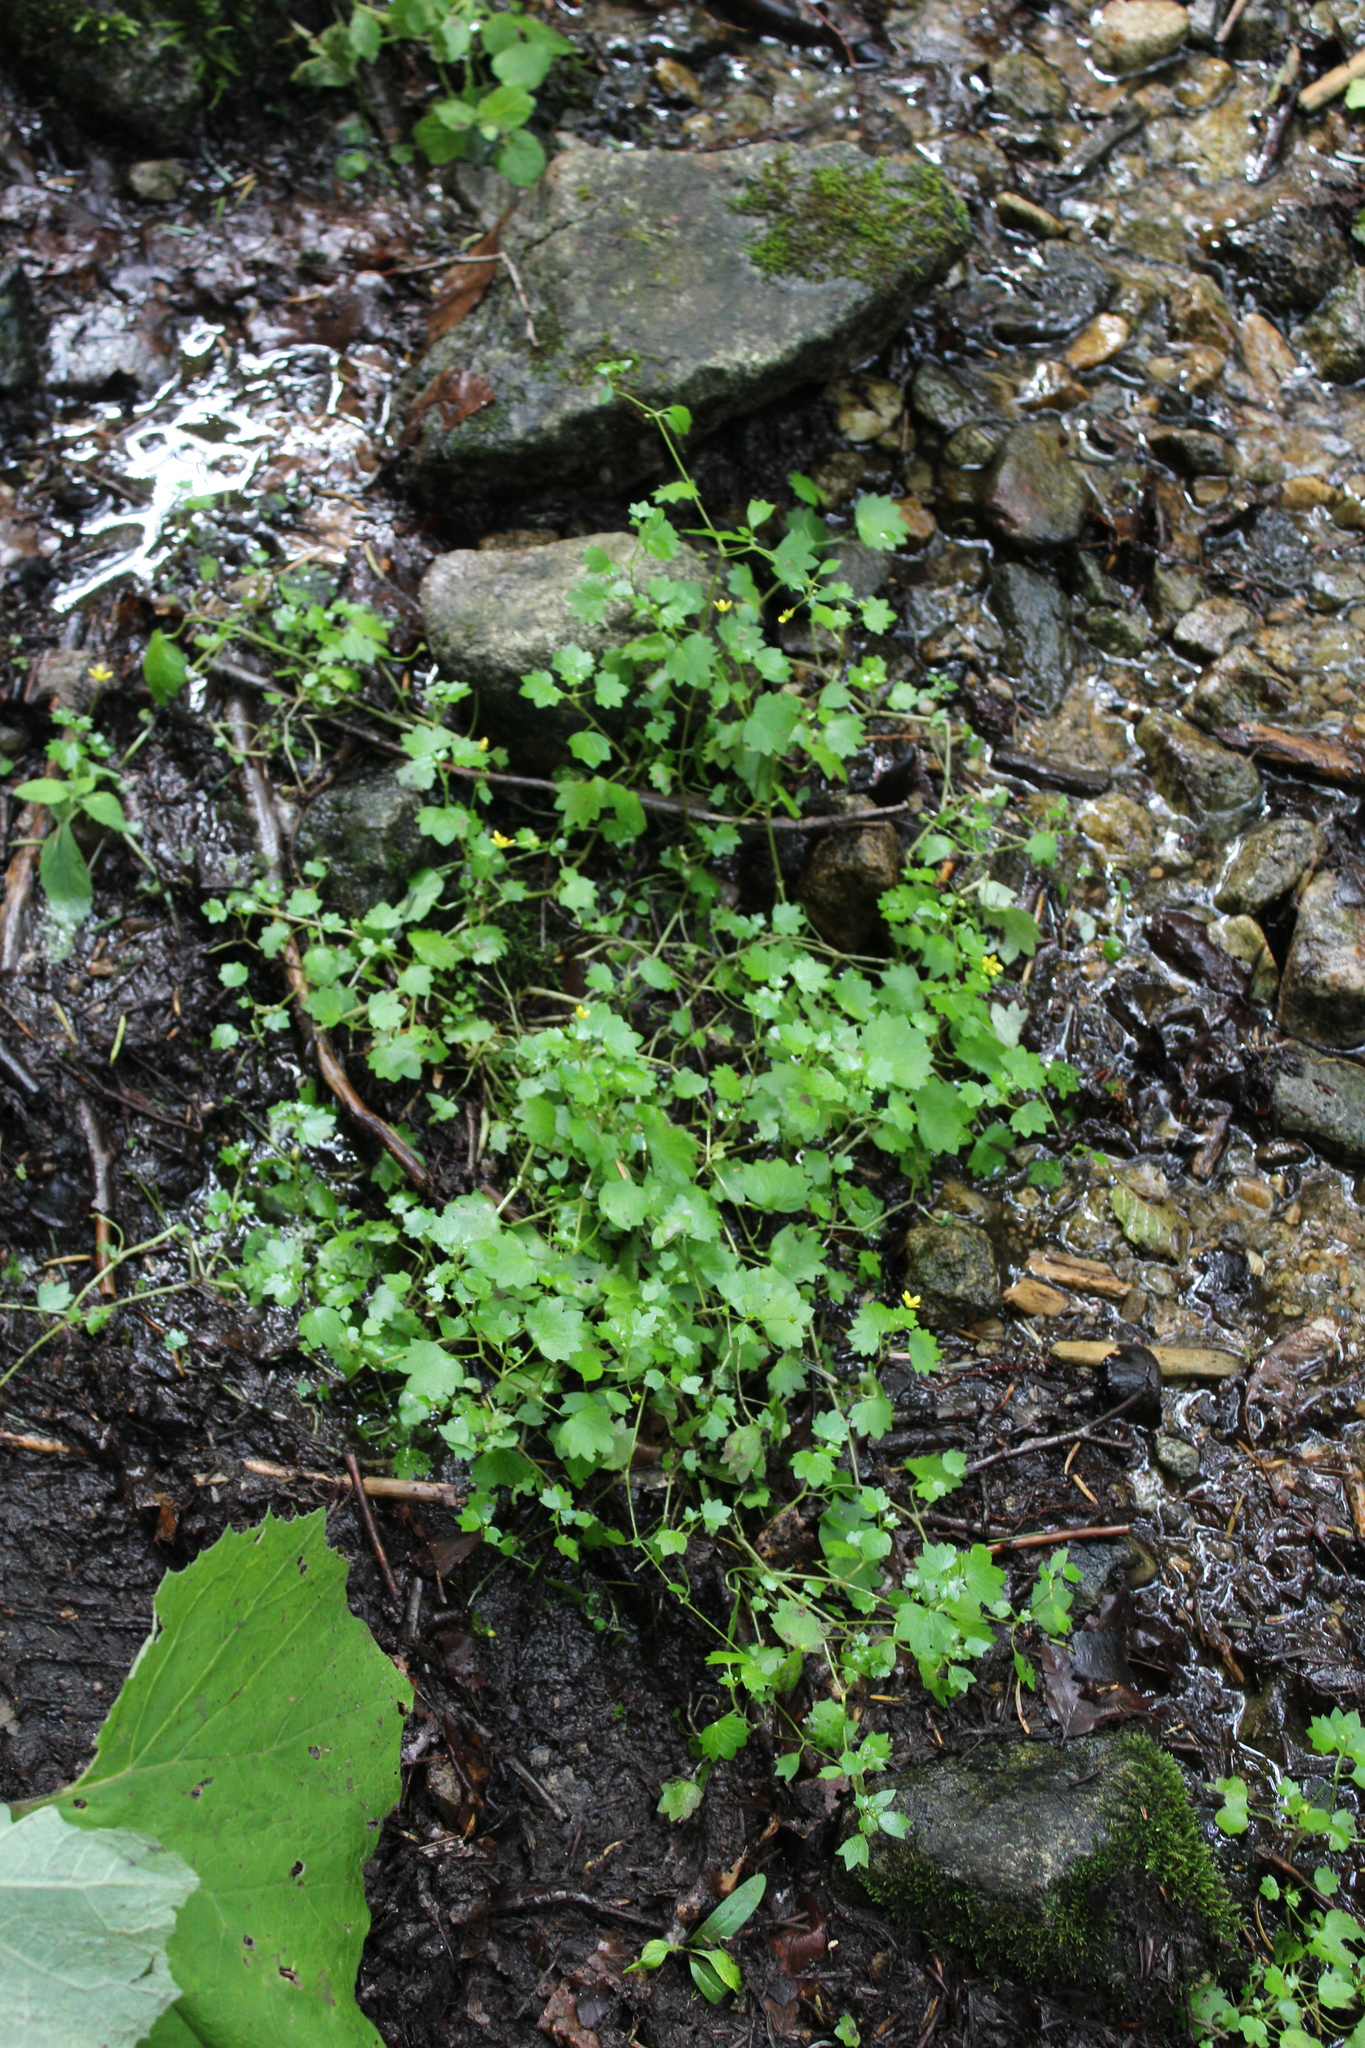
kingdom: Plantae
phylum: Tracheophyta
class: Magnoliopsida
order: Saxifragales
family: Saxifragaceae
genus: Saxifraga
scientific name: Saxifraga cymbalaria
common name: Celandine saxifrage
